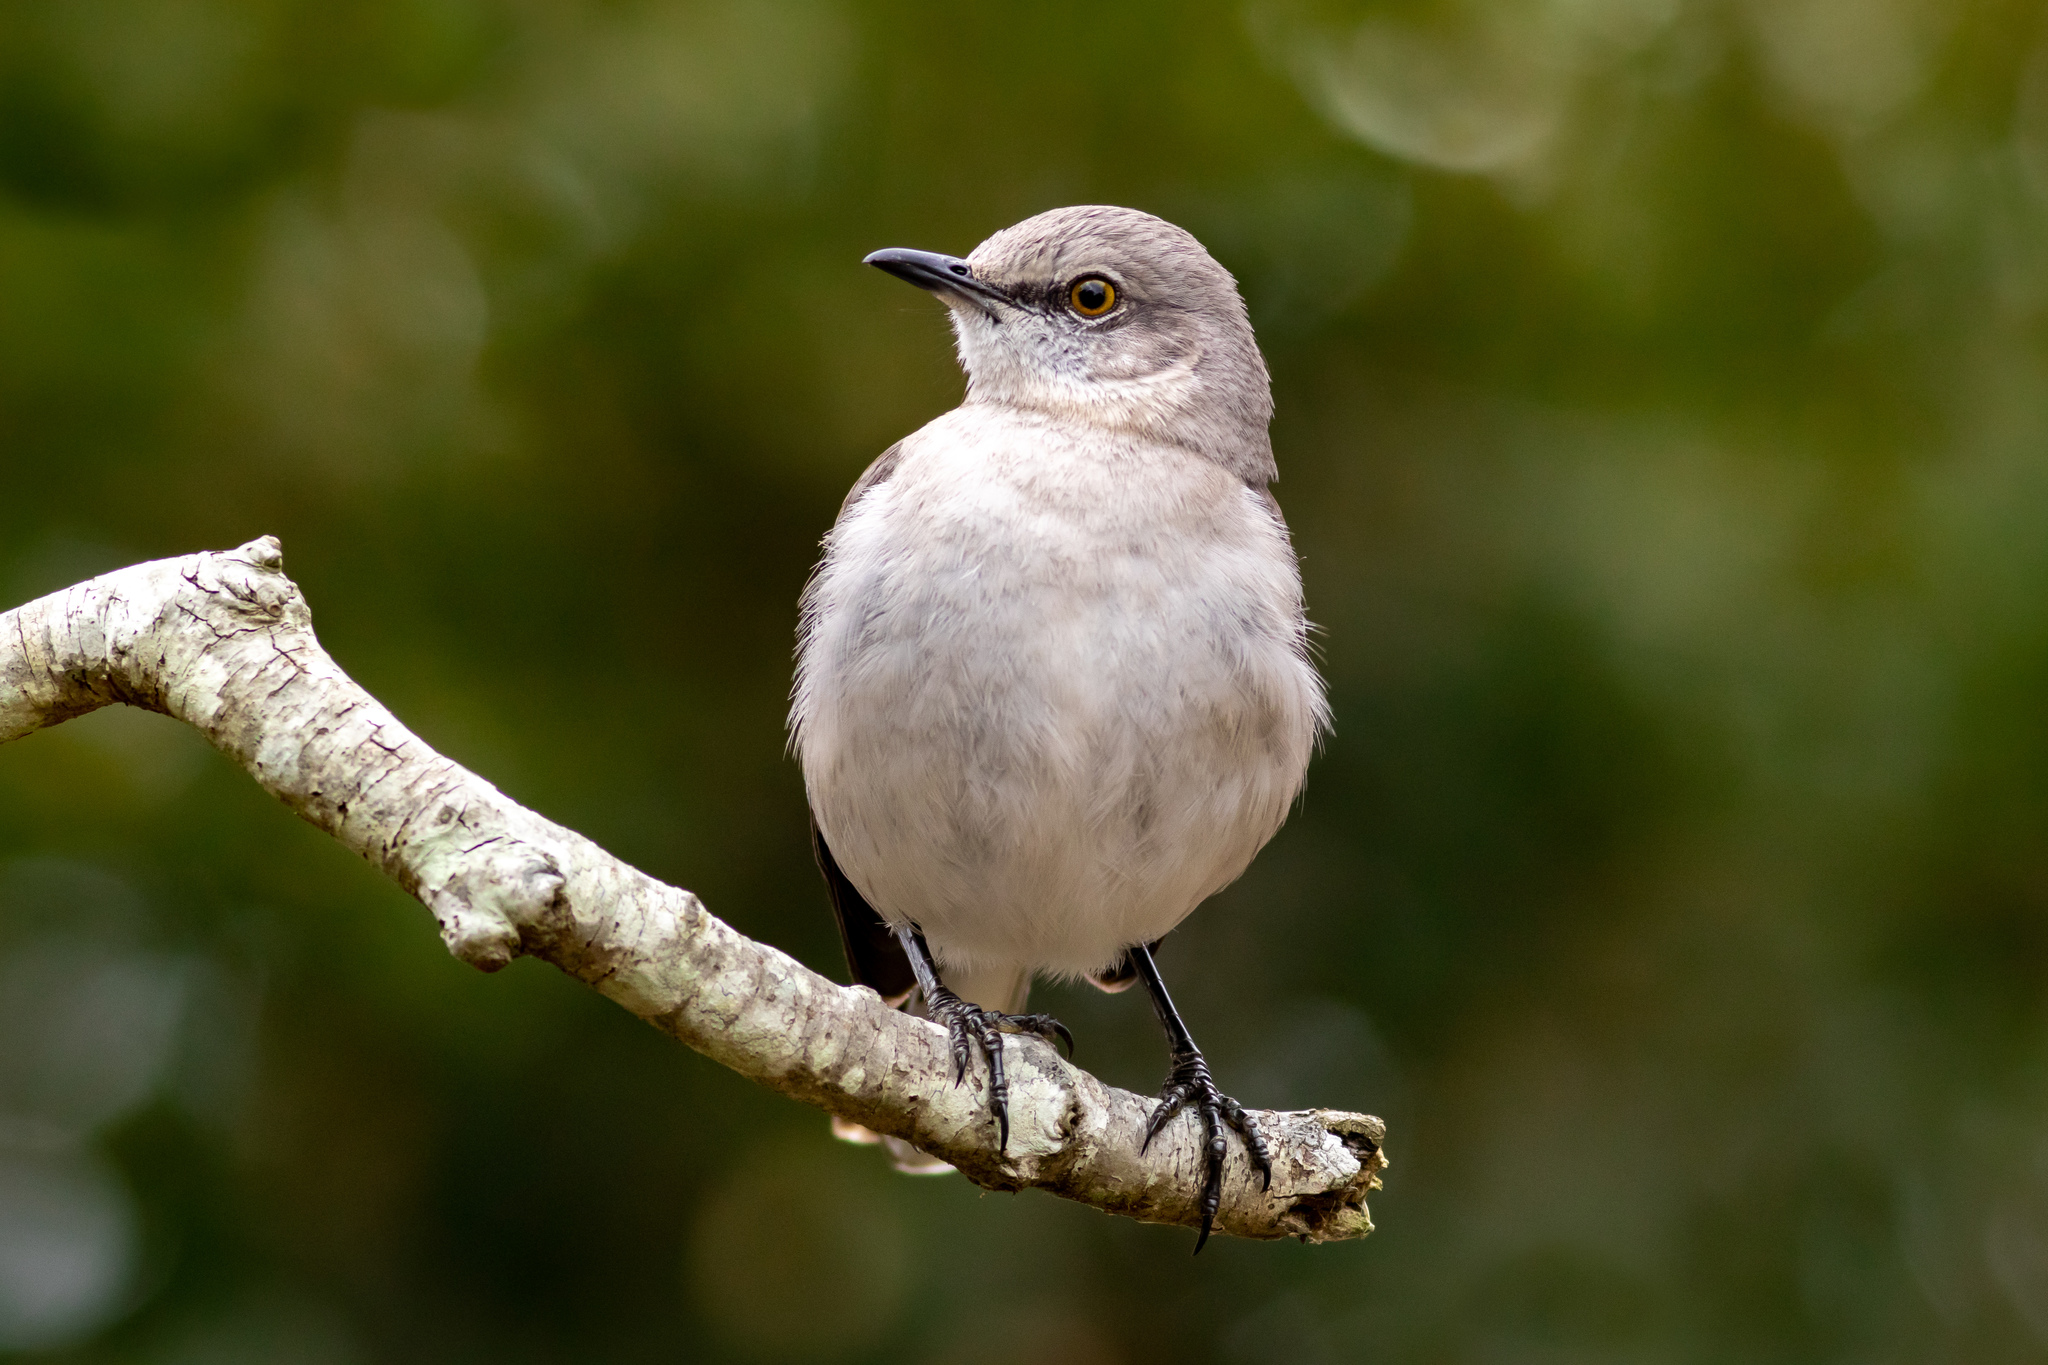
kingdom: Animalia
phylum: Chordata
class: Aves
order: Passeriformes
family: Mimidae
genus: Mimus
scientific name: Mimus polyglottos
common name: Northern mockingbird
